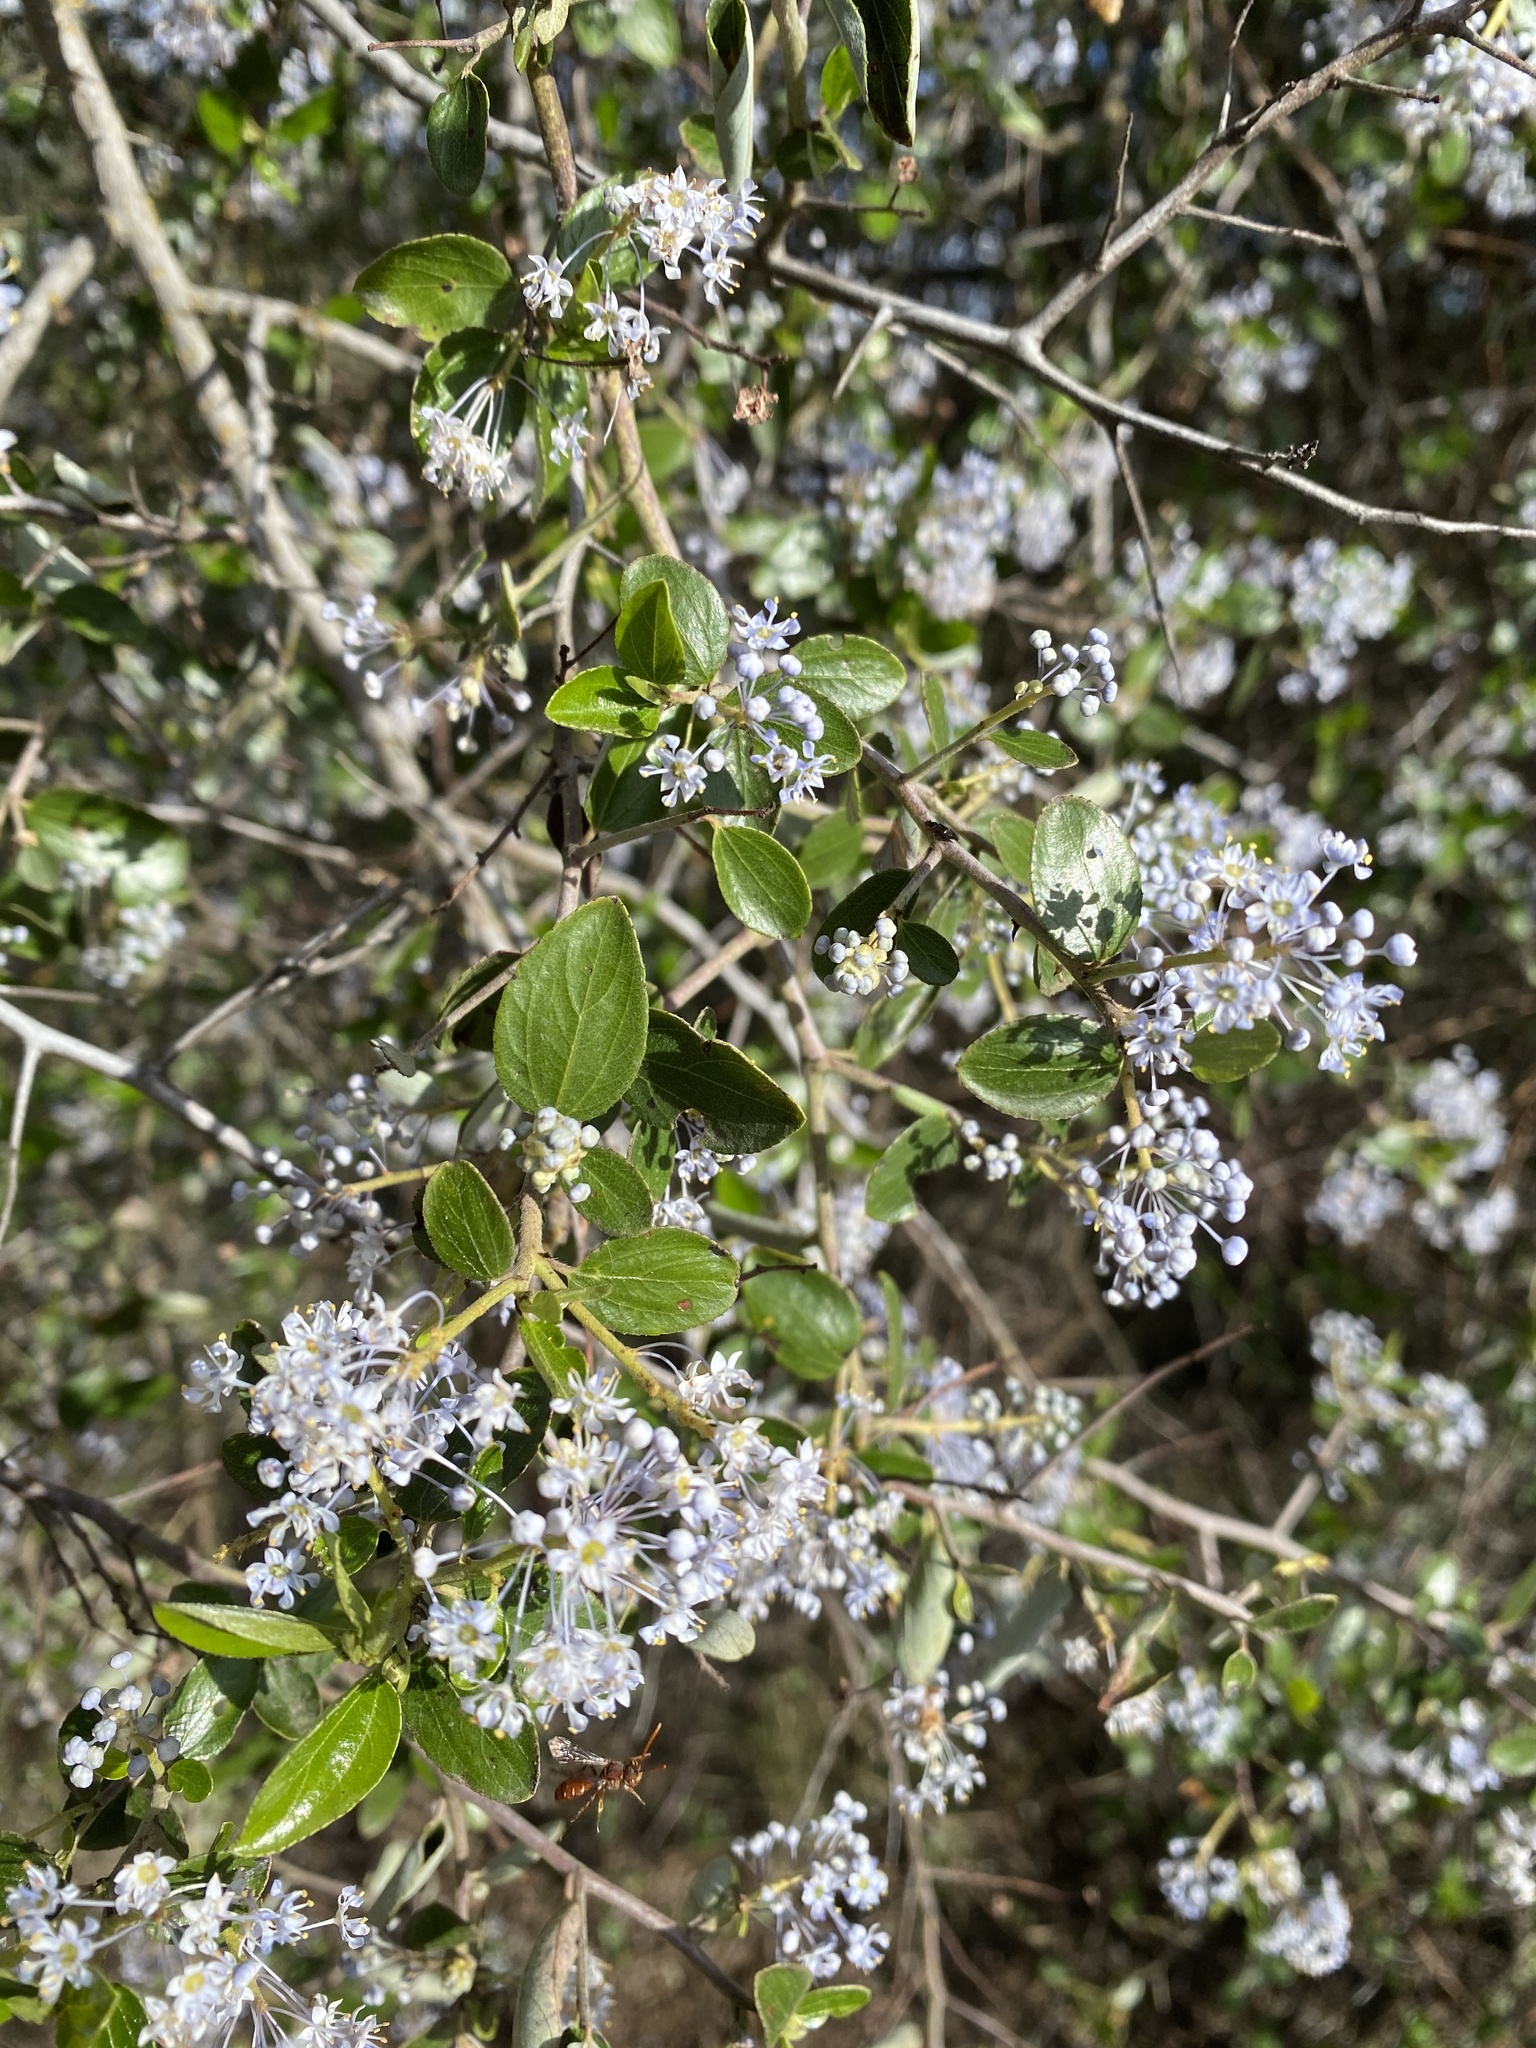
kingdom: Plantae
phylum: Tracheophyta
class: Magnoliopsida
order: Rosales
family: Rhamnaceae
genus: Ceanothus
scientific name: Ceanothus oliganthus
